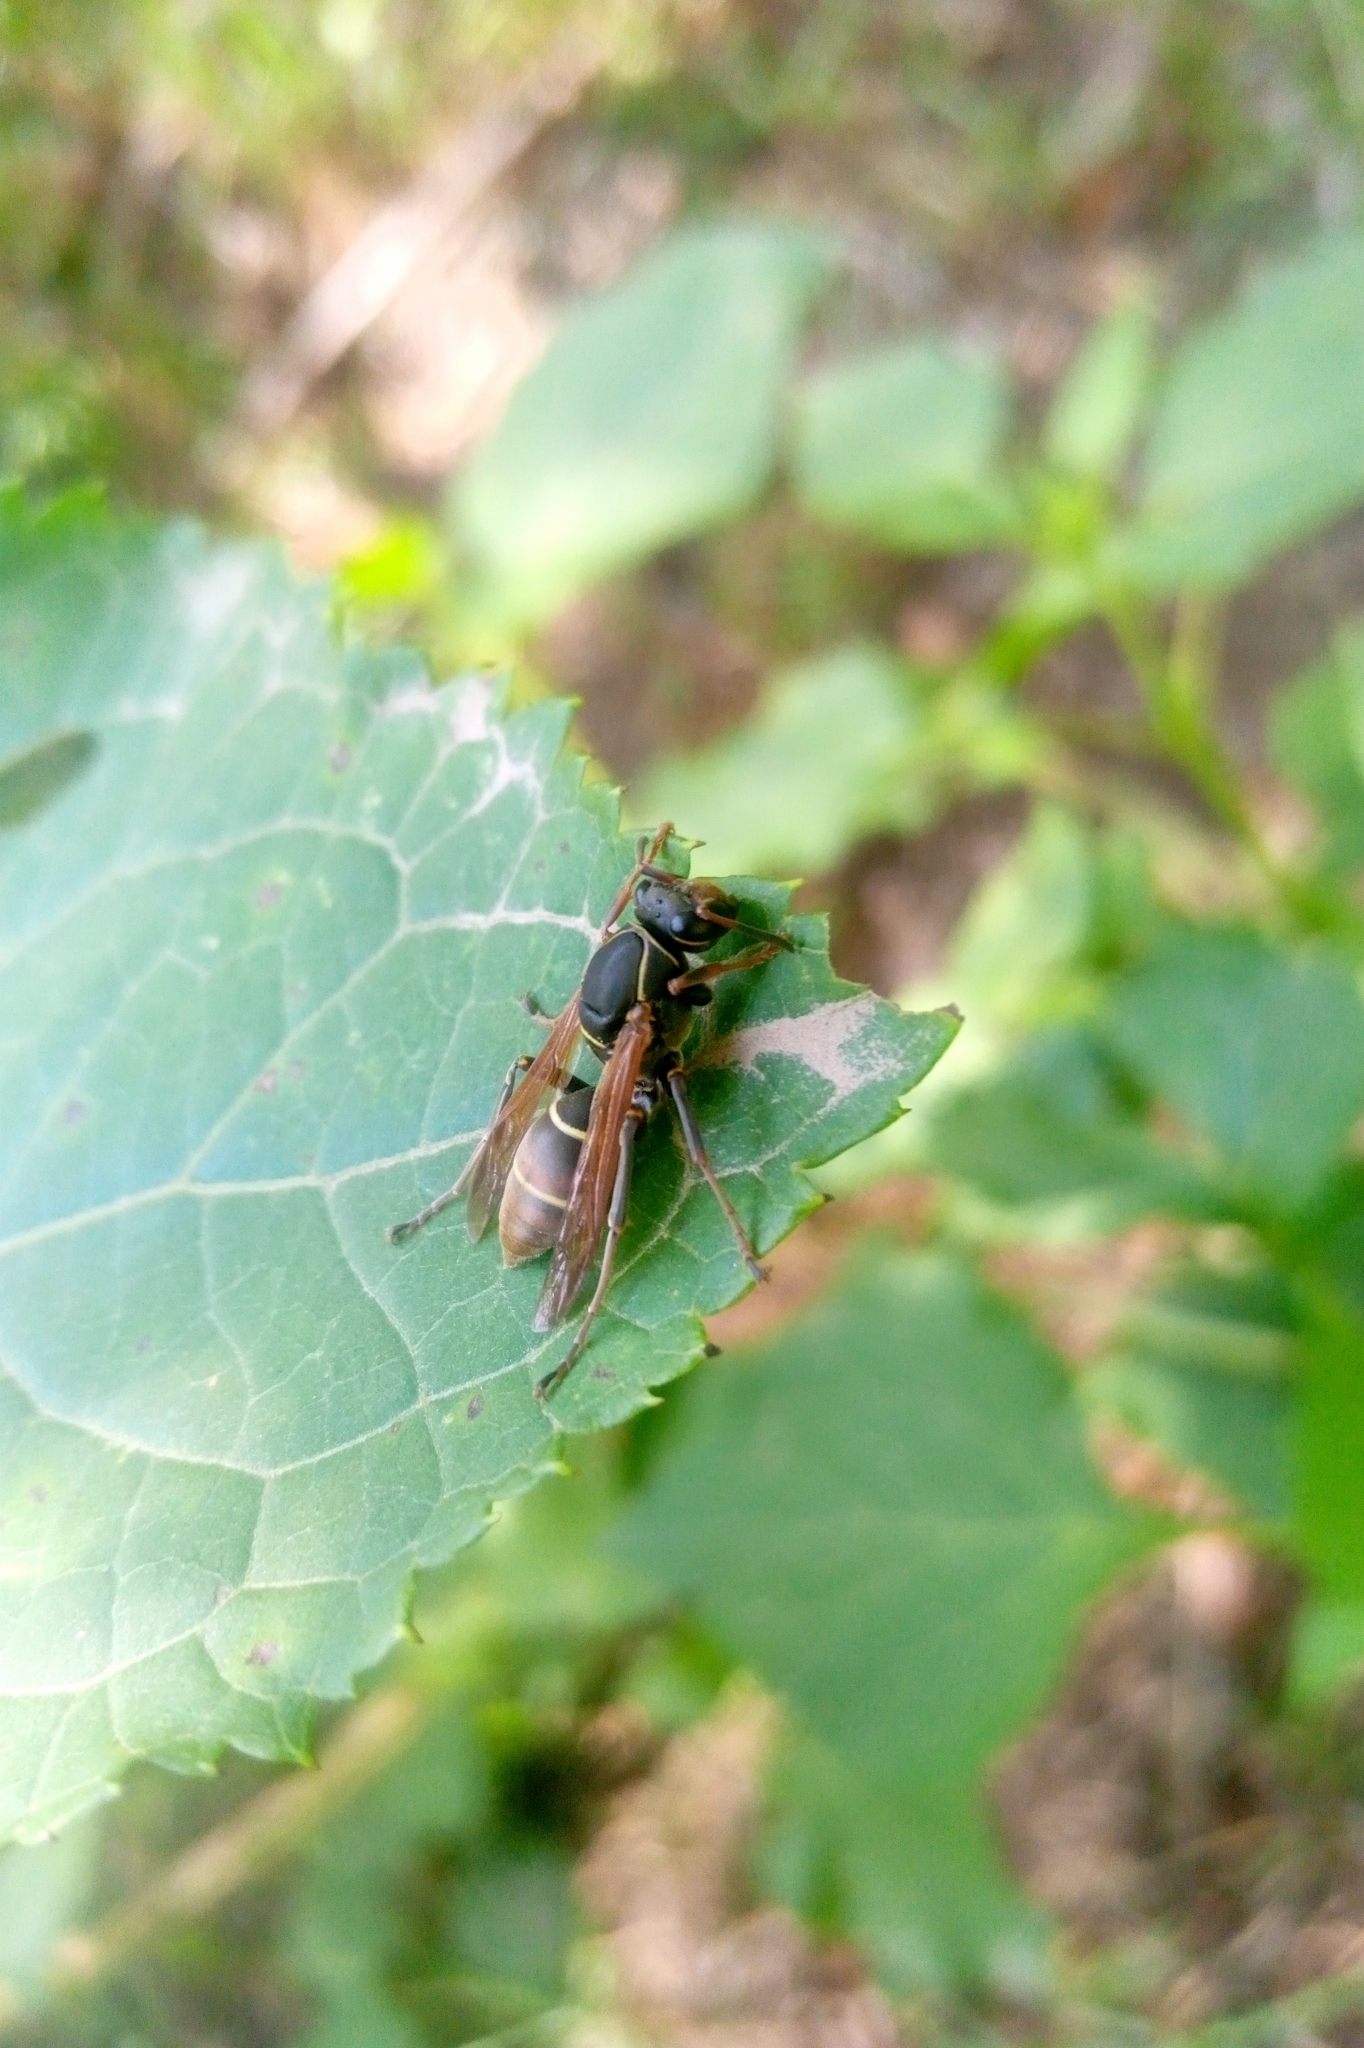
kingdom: Animalia
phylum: Arthropoda
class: Insecta
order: Hymenoptera
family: Eumenidae
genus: Polistes
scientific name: Polistes pacificus
